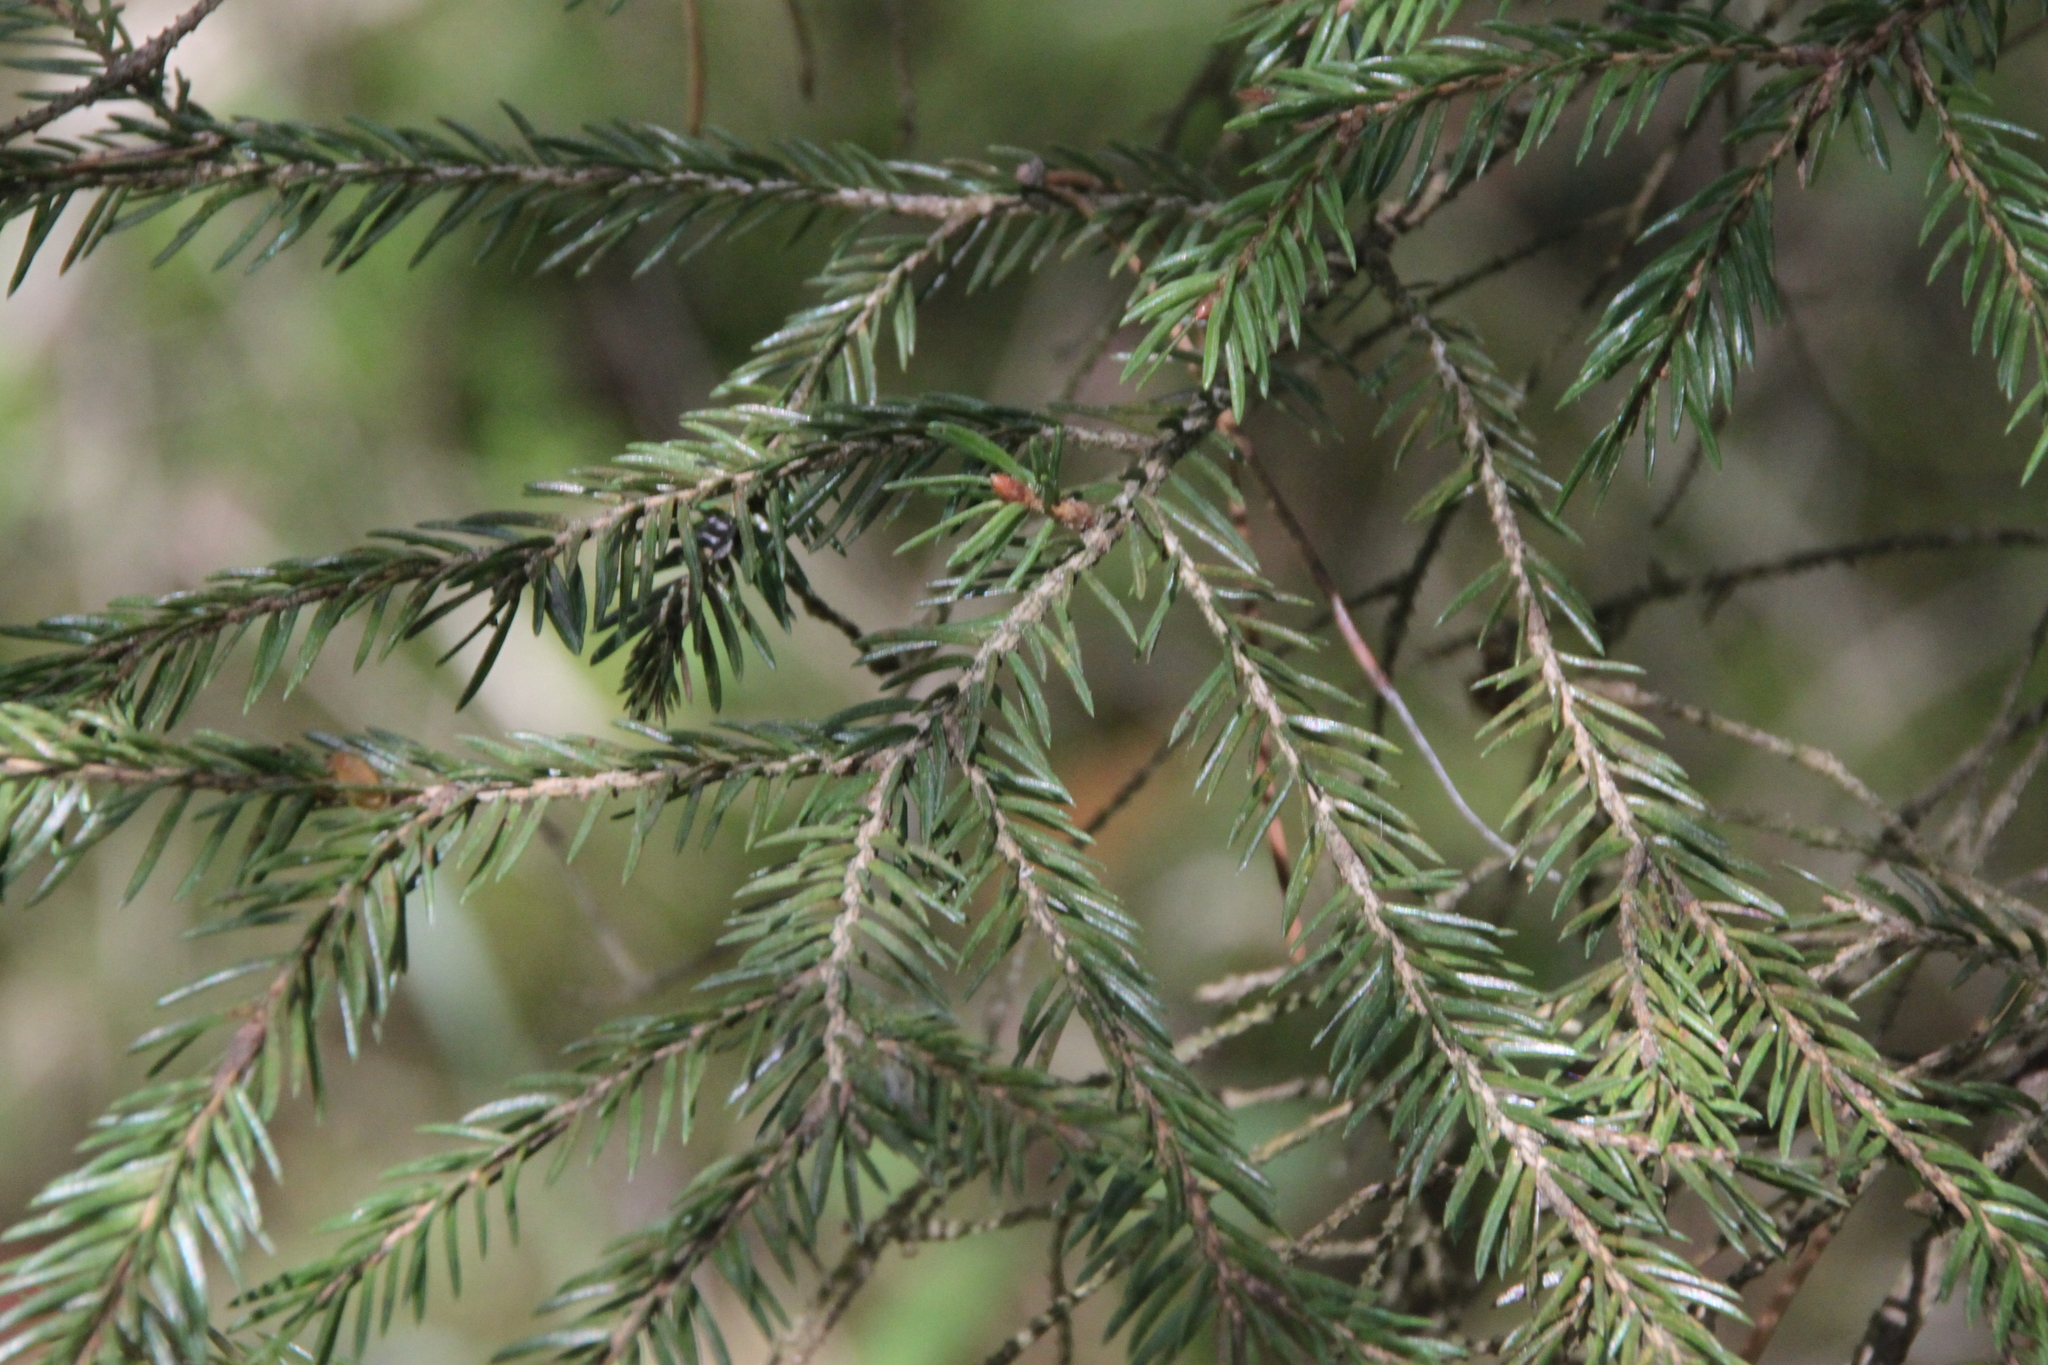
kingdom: Plantae
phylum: Tracheophyta
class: Pinopsida
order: Pinales
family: Pinaceae
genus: Picea
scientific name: Picea abies
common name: Norway spruce
